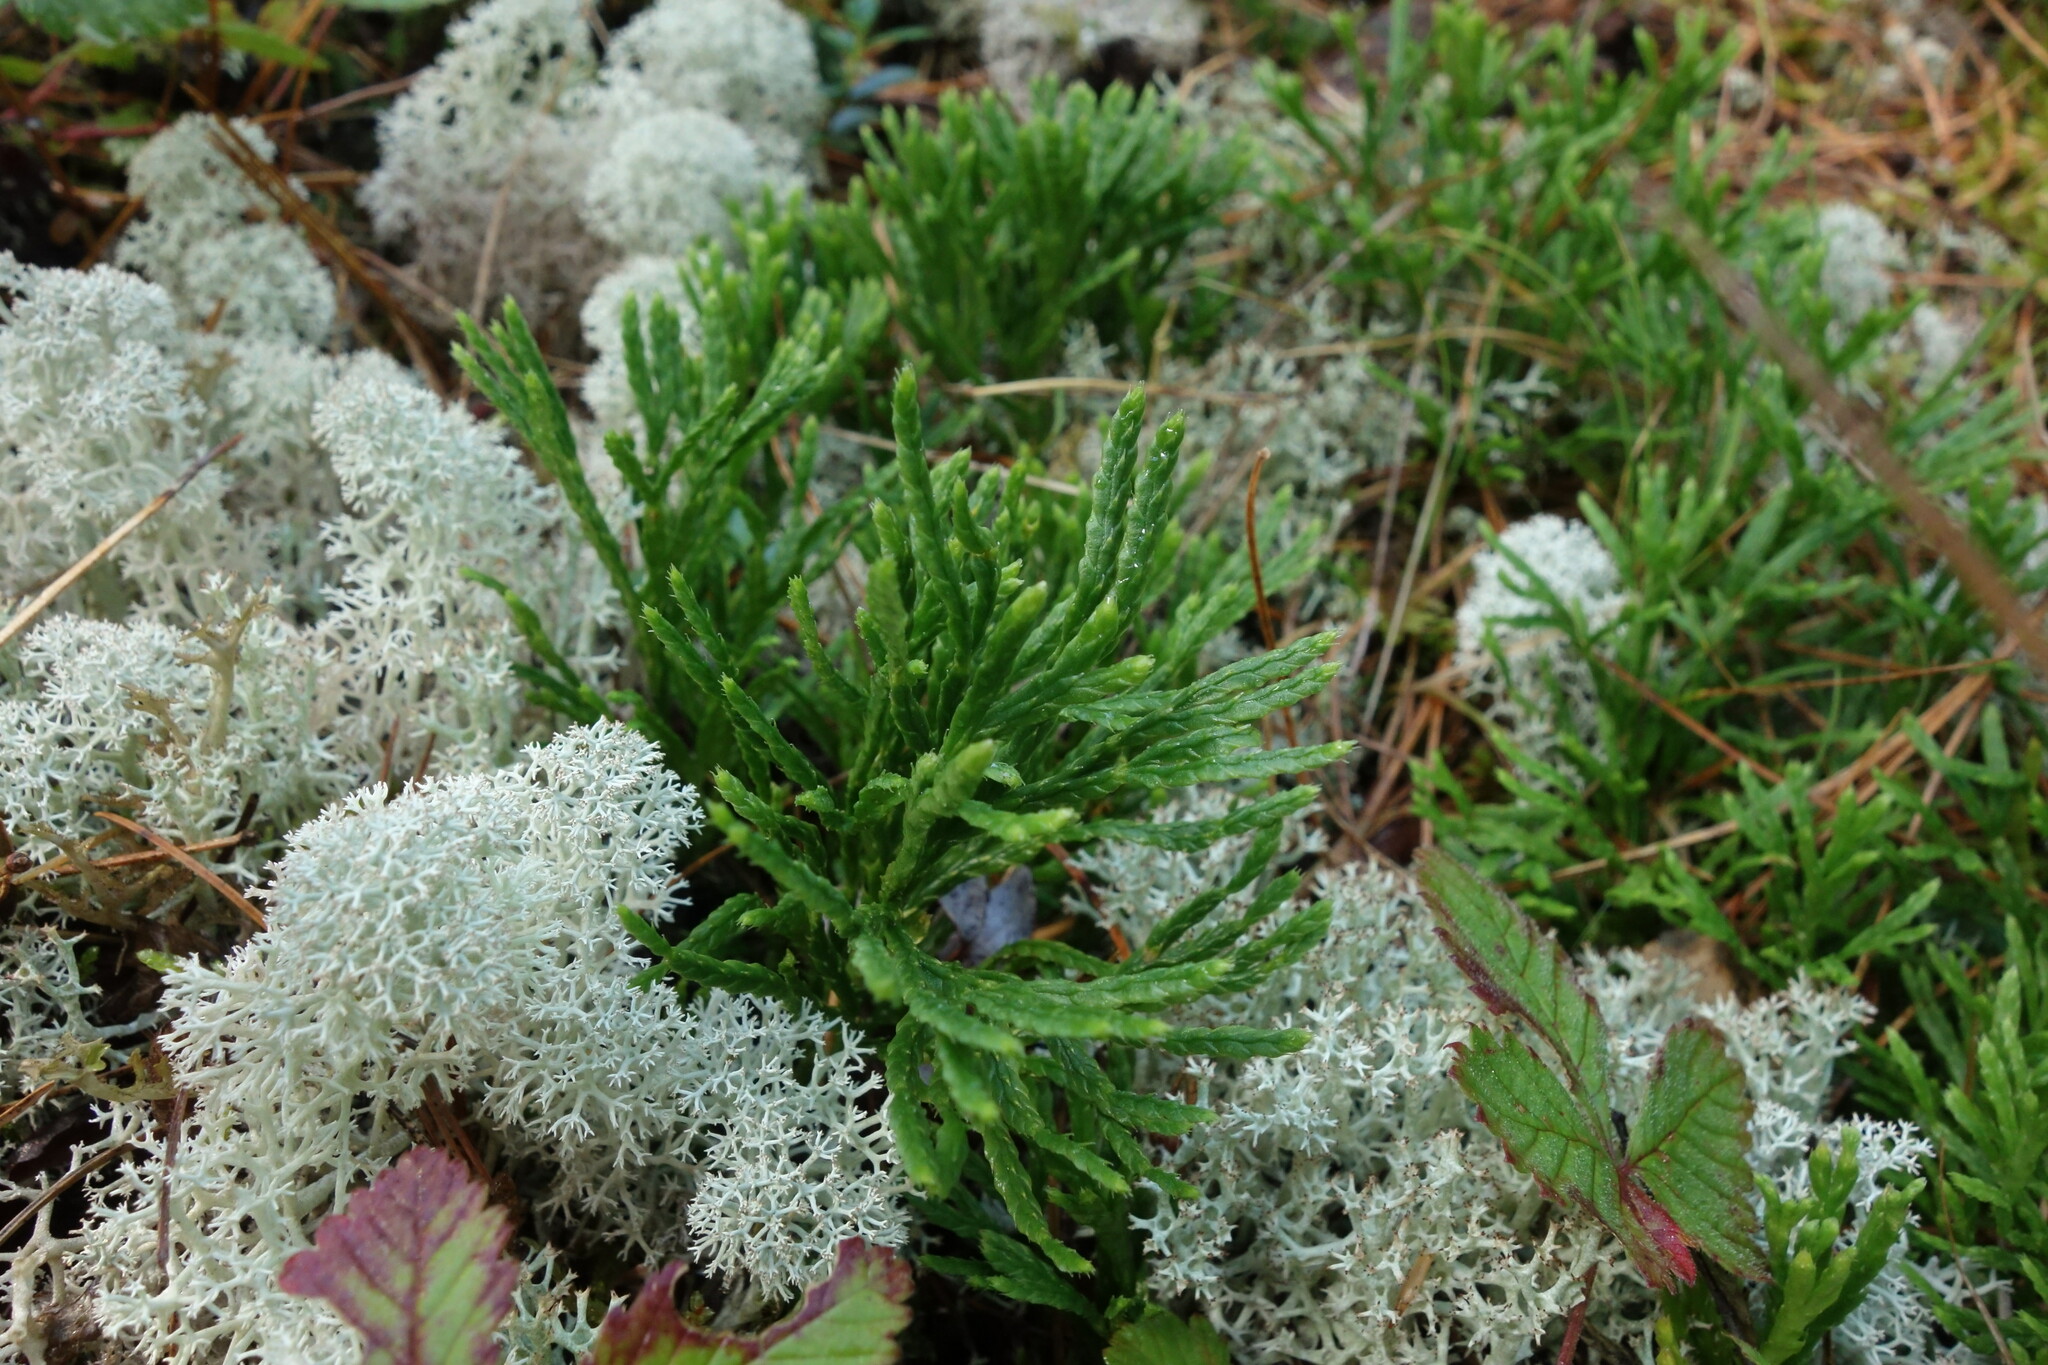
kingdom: Plantae
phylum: Tracheophyta
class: Lycopodiopsida
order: Lycopodiales
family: Lycopodiaceae
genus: Diphasiastrum
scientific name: Diphasiastrum complanatum
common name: Northern running-pine
